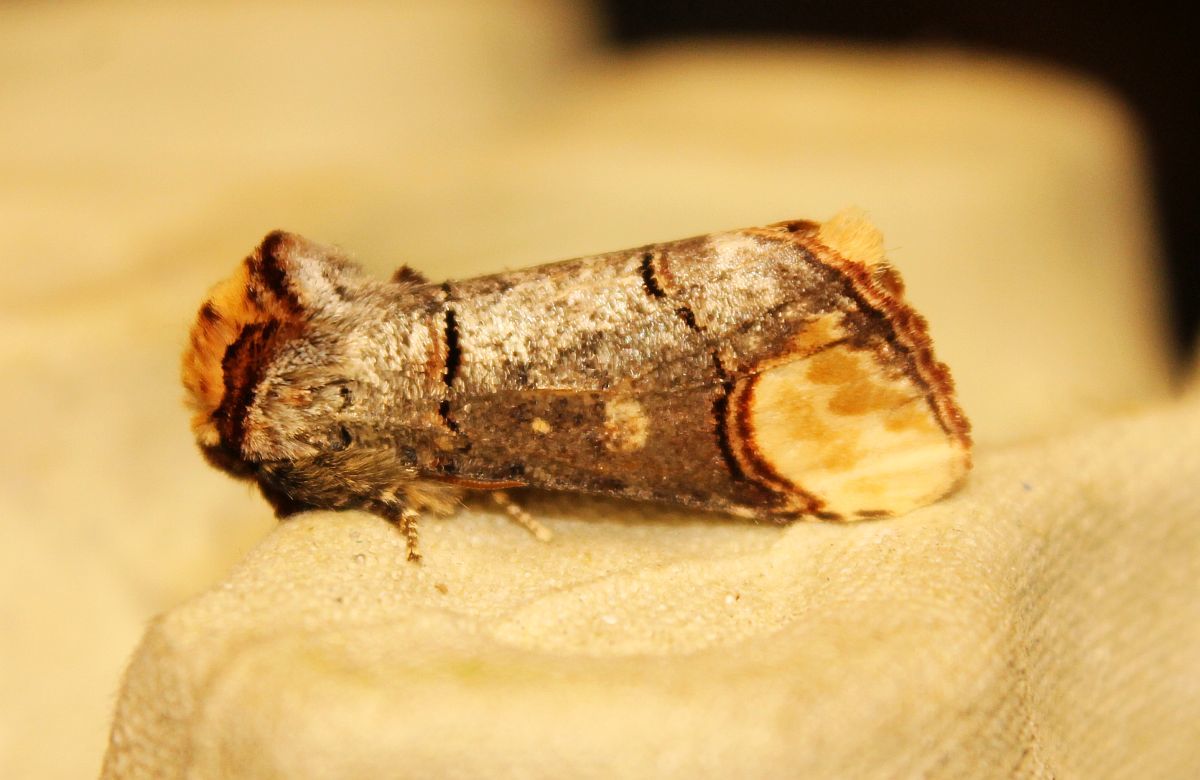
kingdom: Animalia
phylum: Arthropoda
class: Insecta
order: Lepidoptera
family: Notodontidae
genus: Phalera
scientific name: Phalera bucephala
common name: Buff-tip
